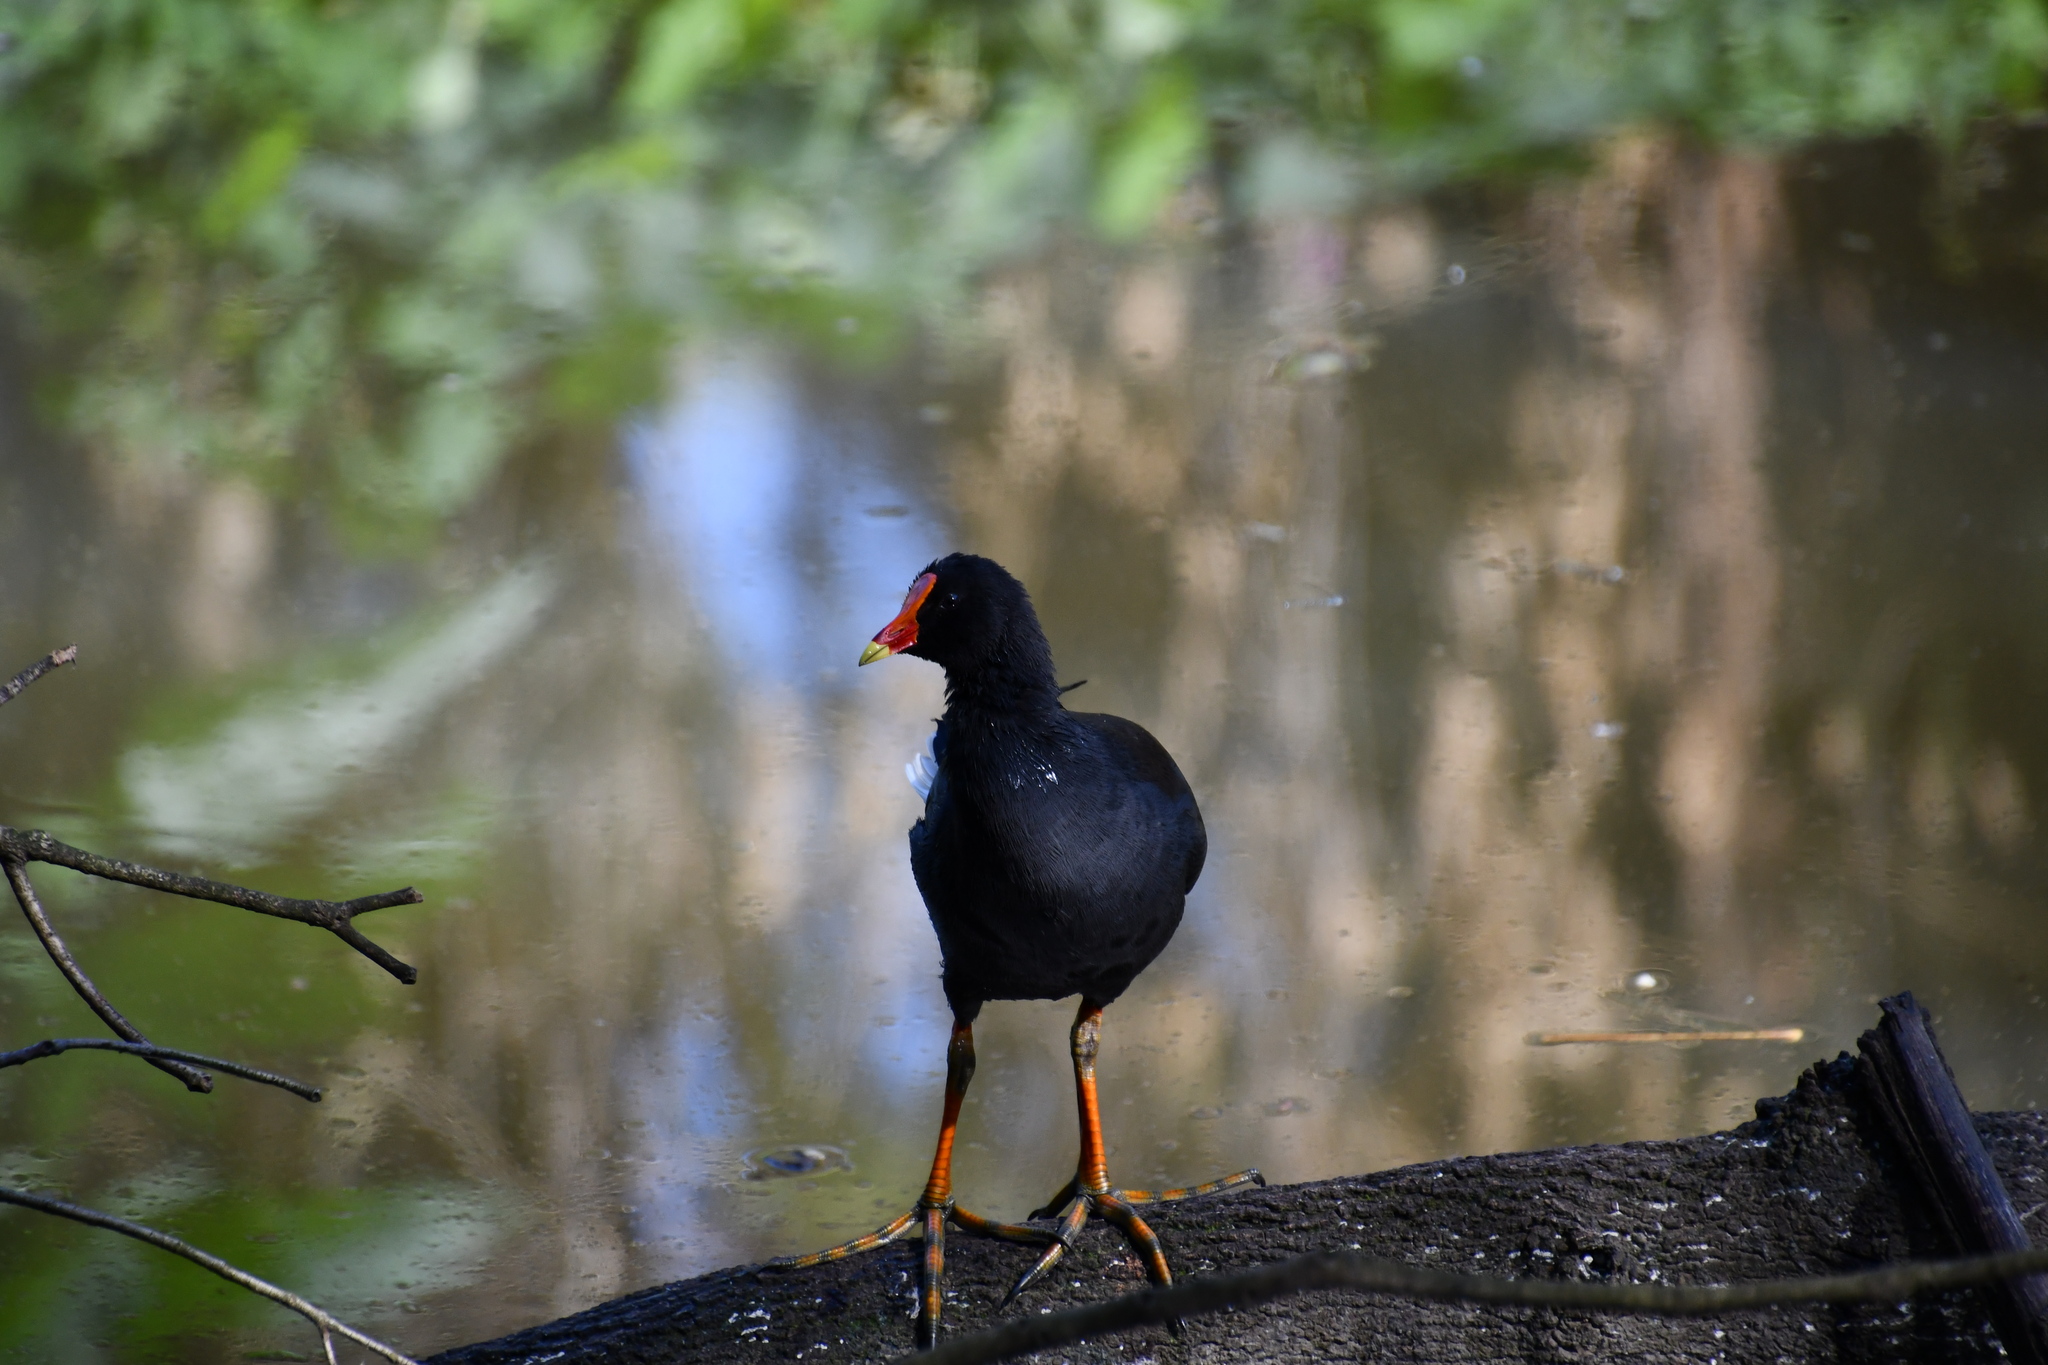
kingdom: Animalia
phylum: Chordata
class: Aves
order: Gruiformes
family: Rallidae
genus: Gallinula
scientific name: Gallinula tenebrosa
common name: Dusky moorhen
